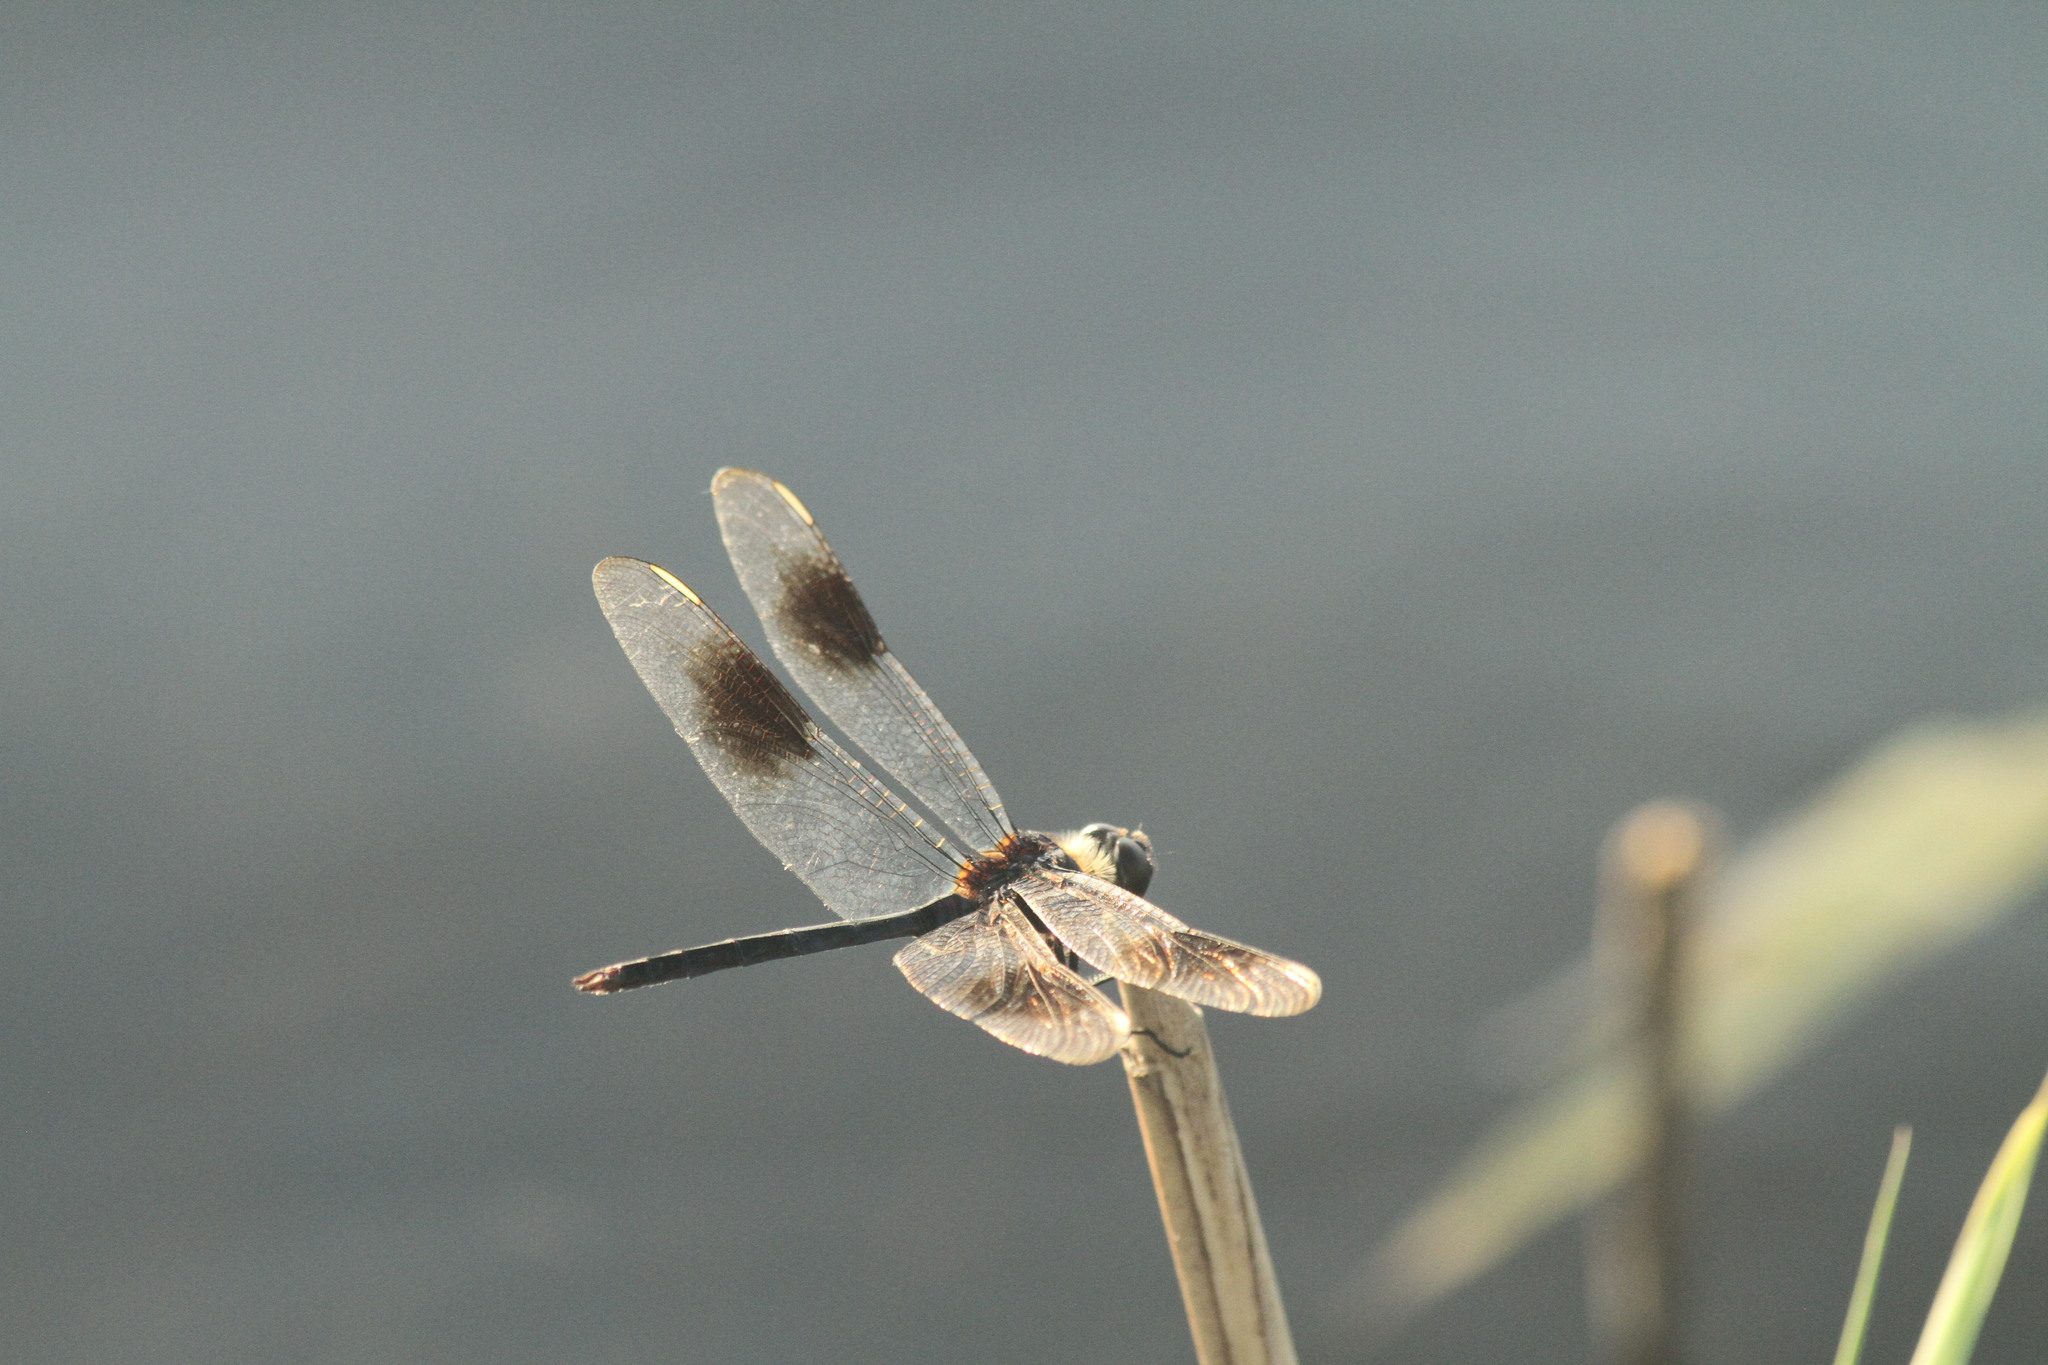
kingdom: Animalia
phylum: Arthropoda
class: Insecta
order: Odonata
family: Libellulidae
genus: Brachymesia
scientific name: Brachymesia gravida
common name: Four-spotted pennant
